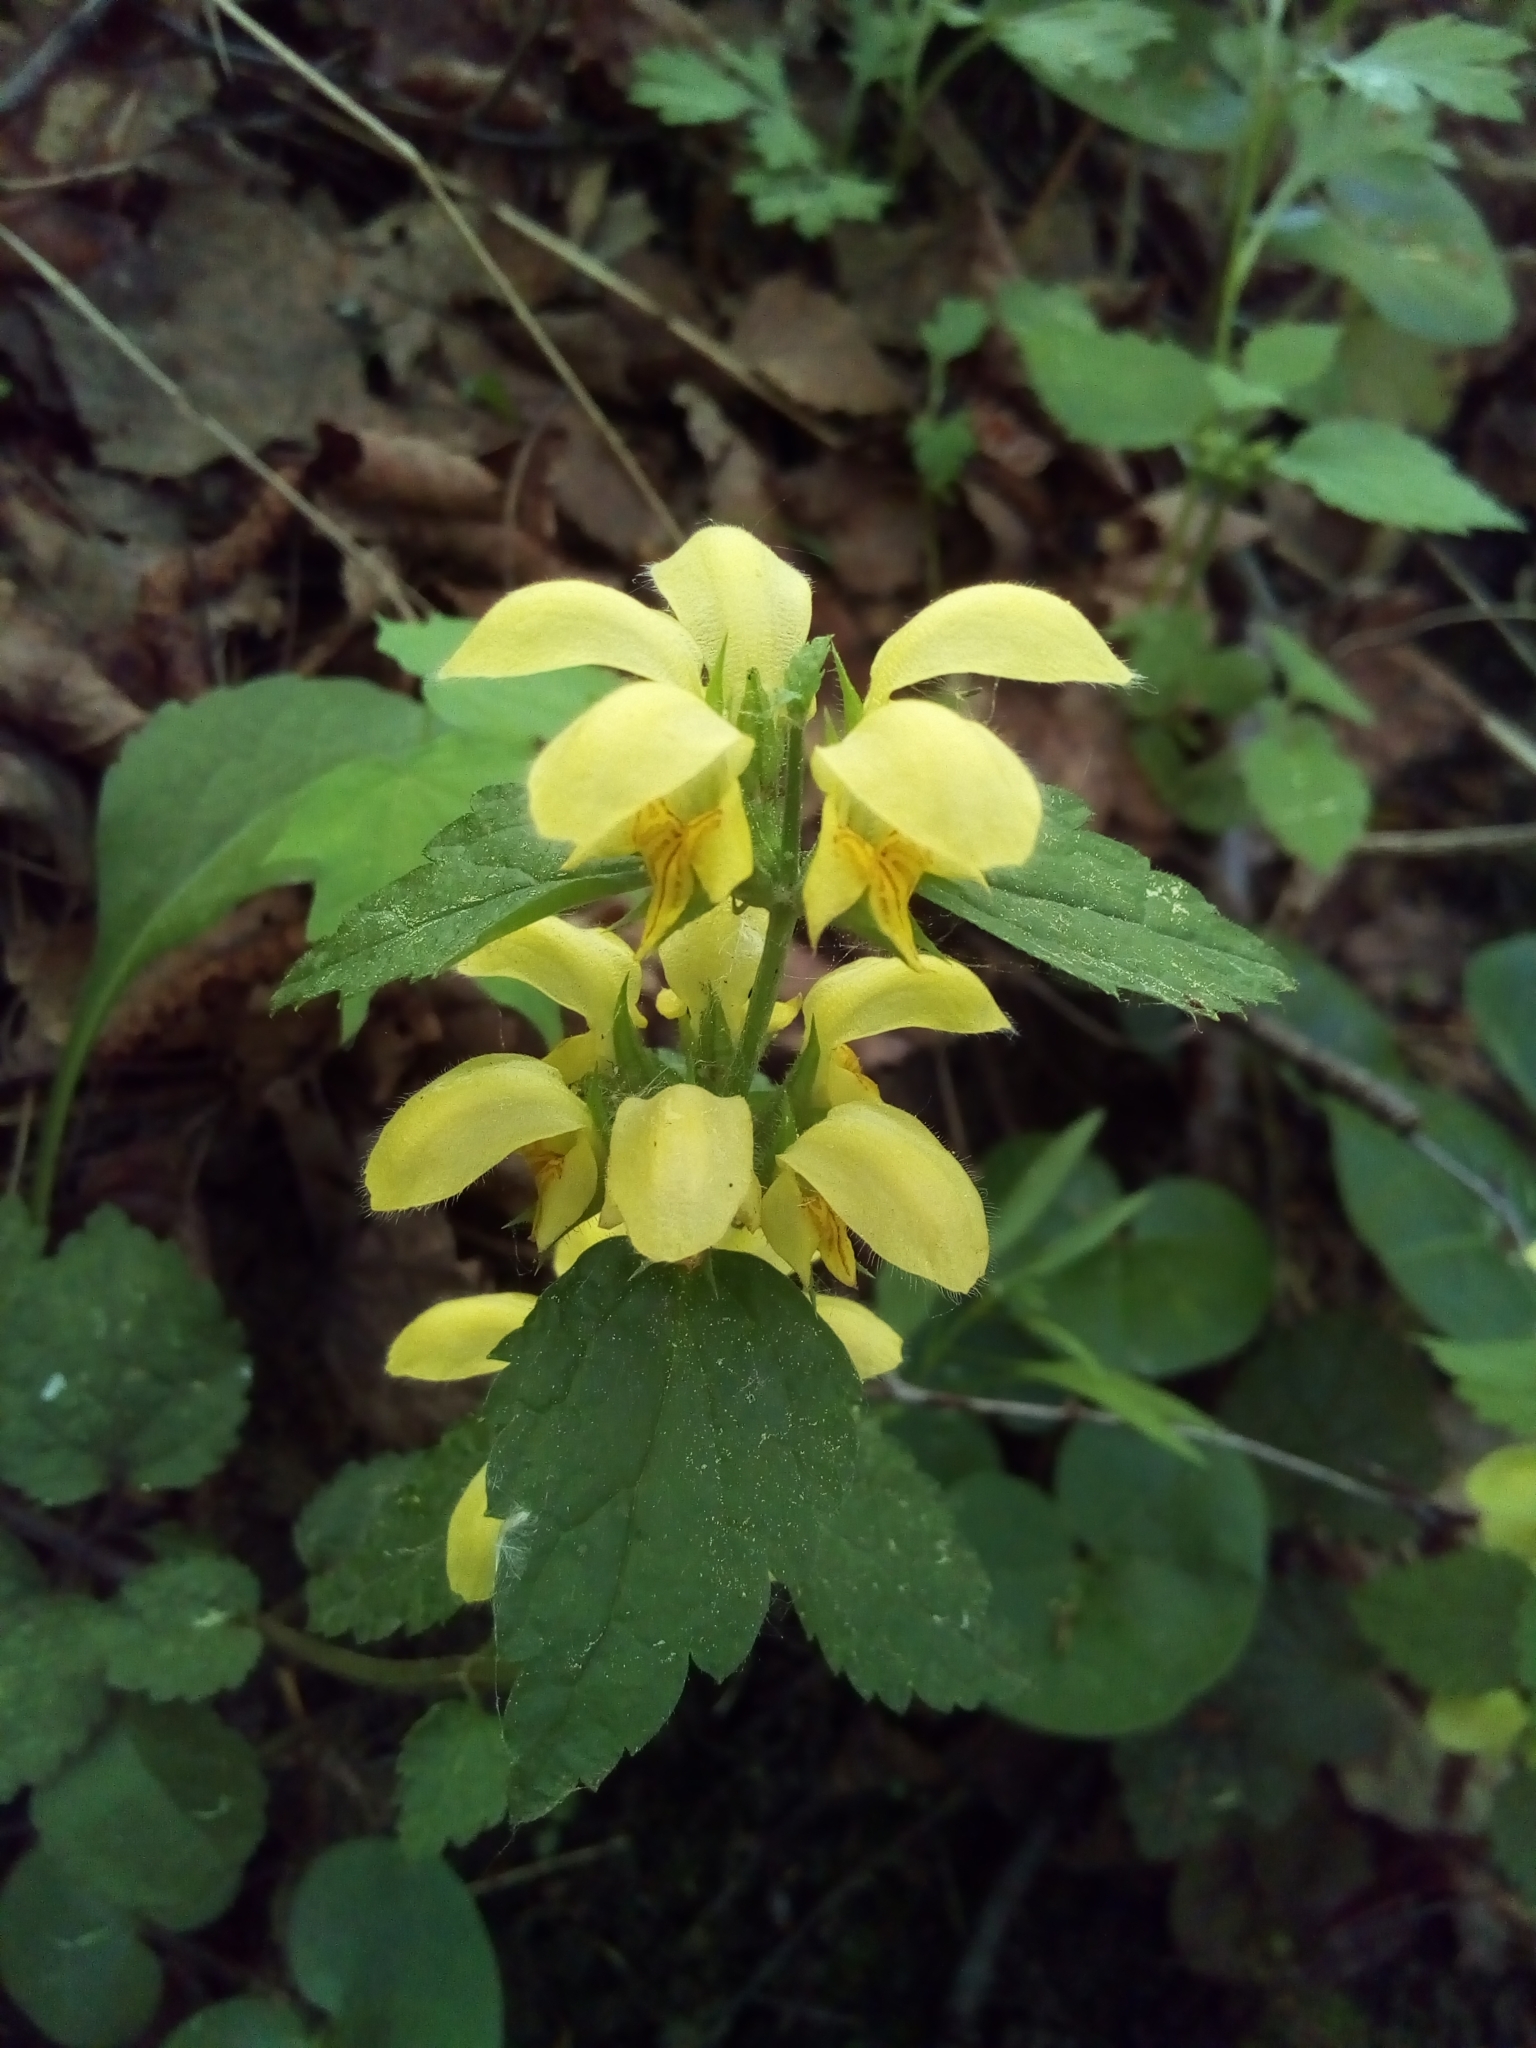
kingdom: Plantae
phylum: Tracheophyta
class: Magnoliopsida
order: Lamiales
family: Lamiaceae
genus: Lamium
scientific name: Lamium galeobdolon
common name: Yellow archangel
